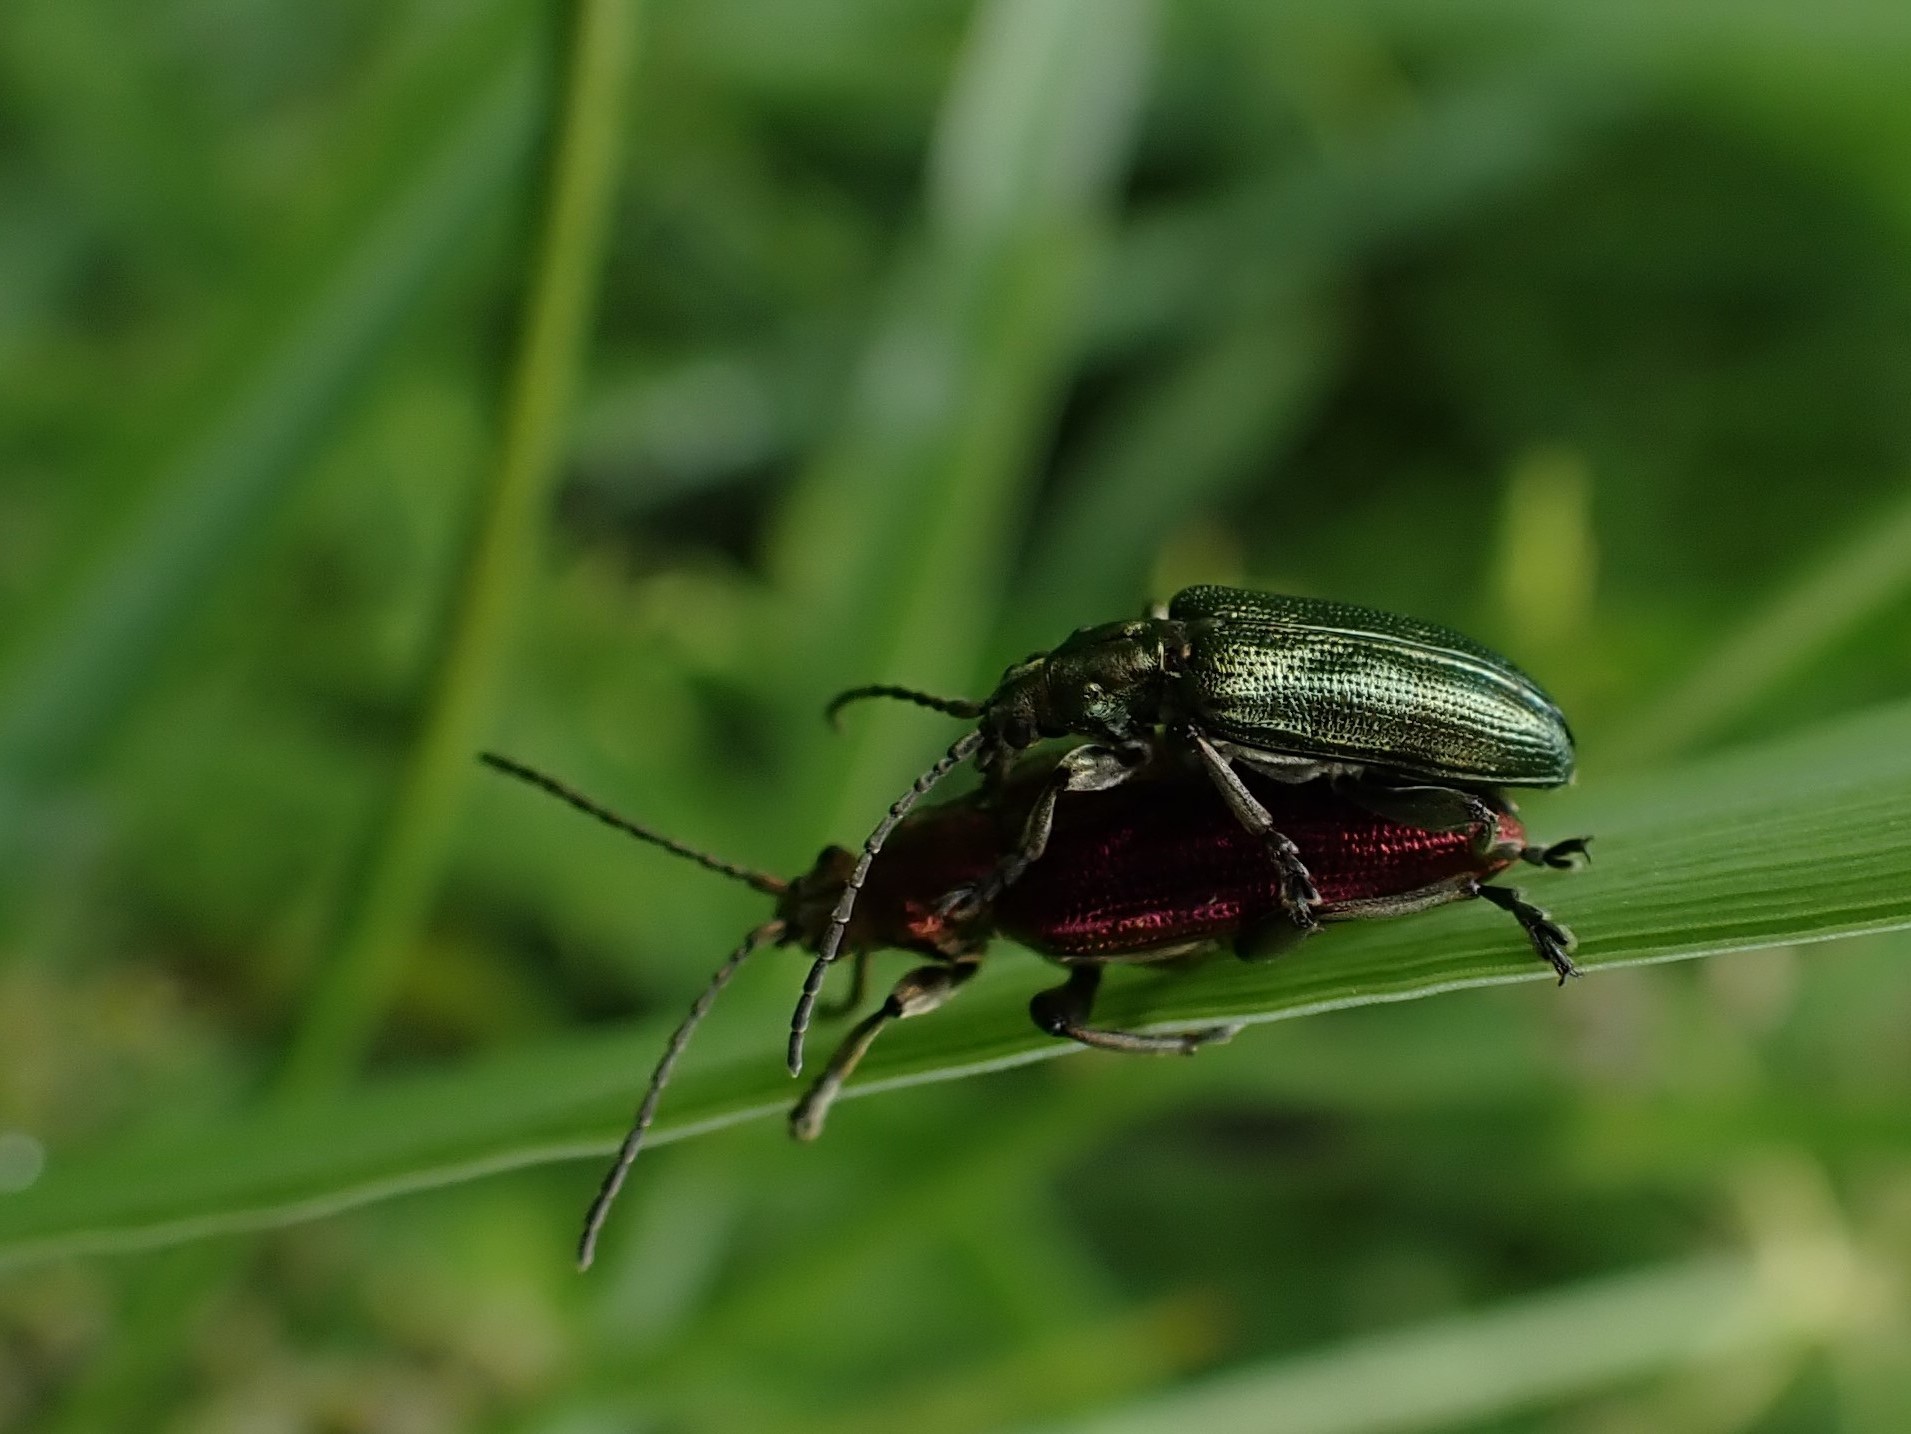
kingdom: Animalia
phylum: Arthropoda
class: Insecta
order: Coleoptera
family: Chrysomelidae
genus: Plateumaris
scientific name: Plateumaris sericea
